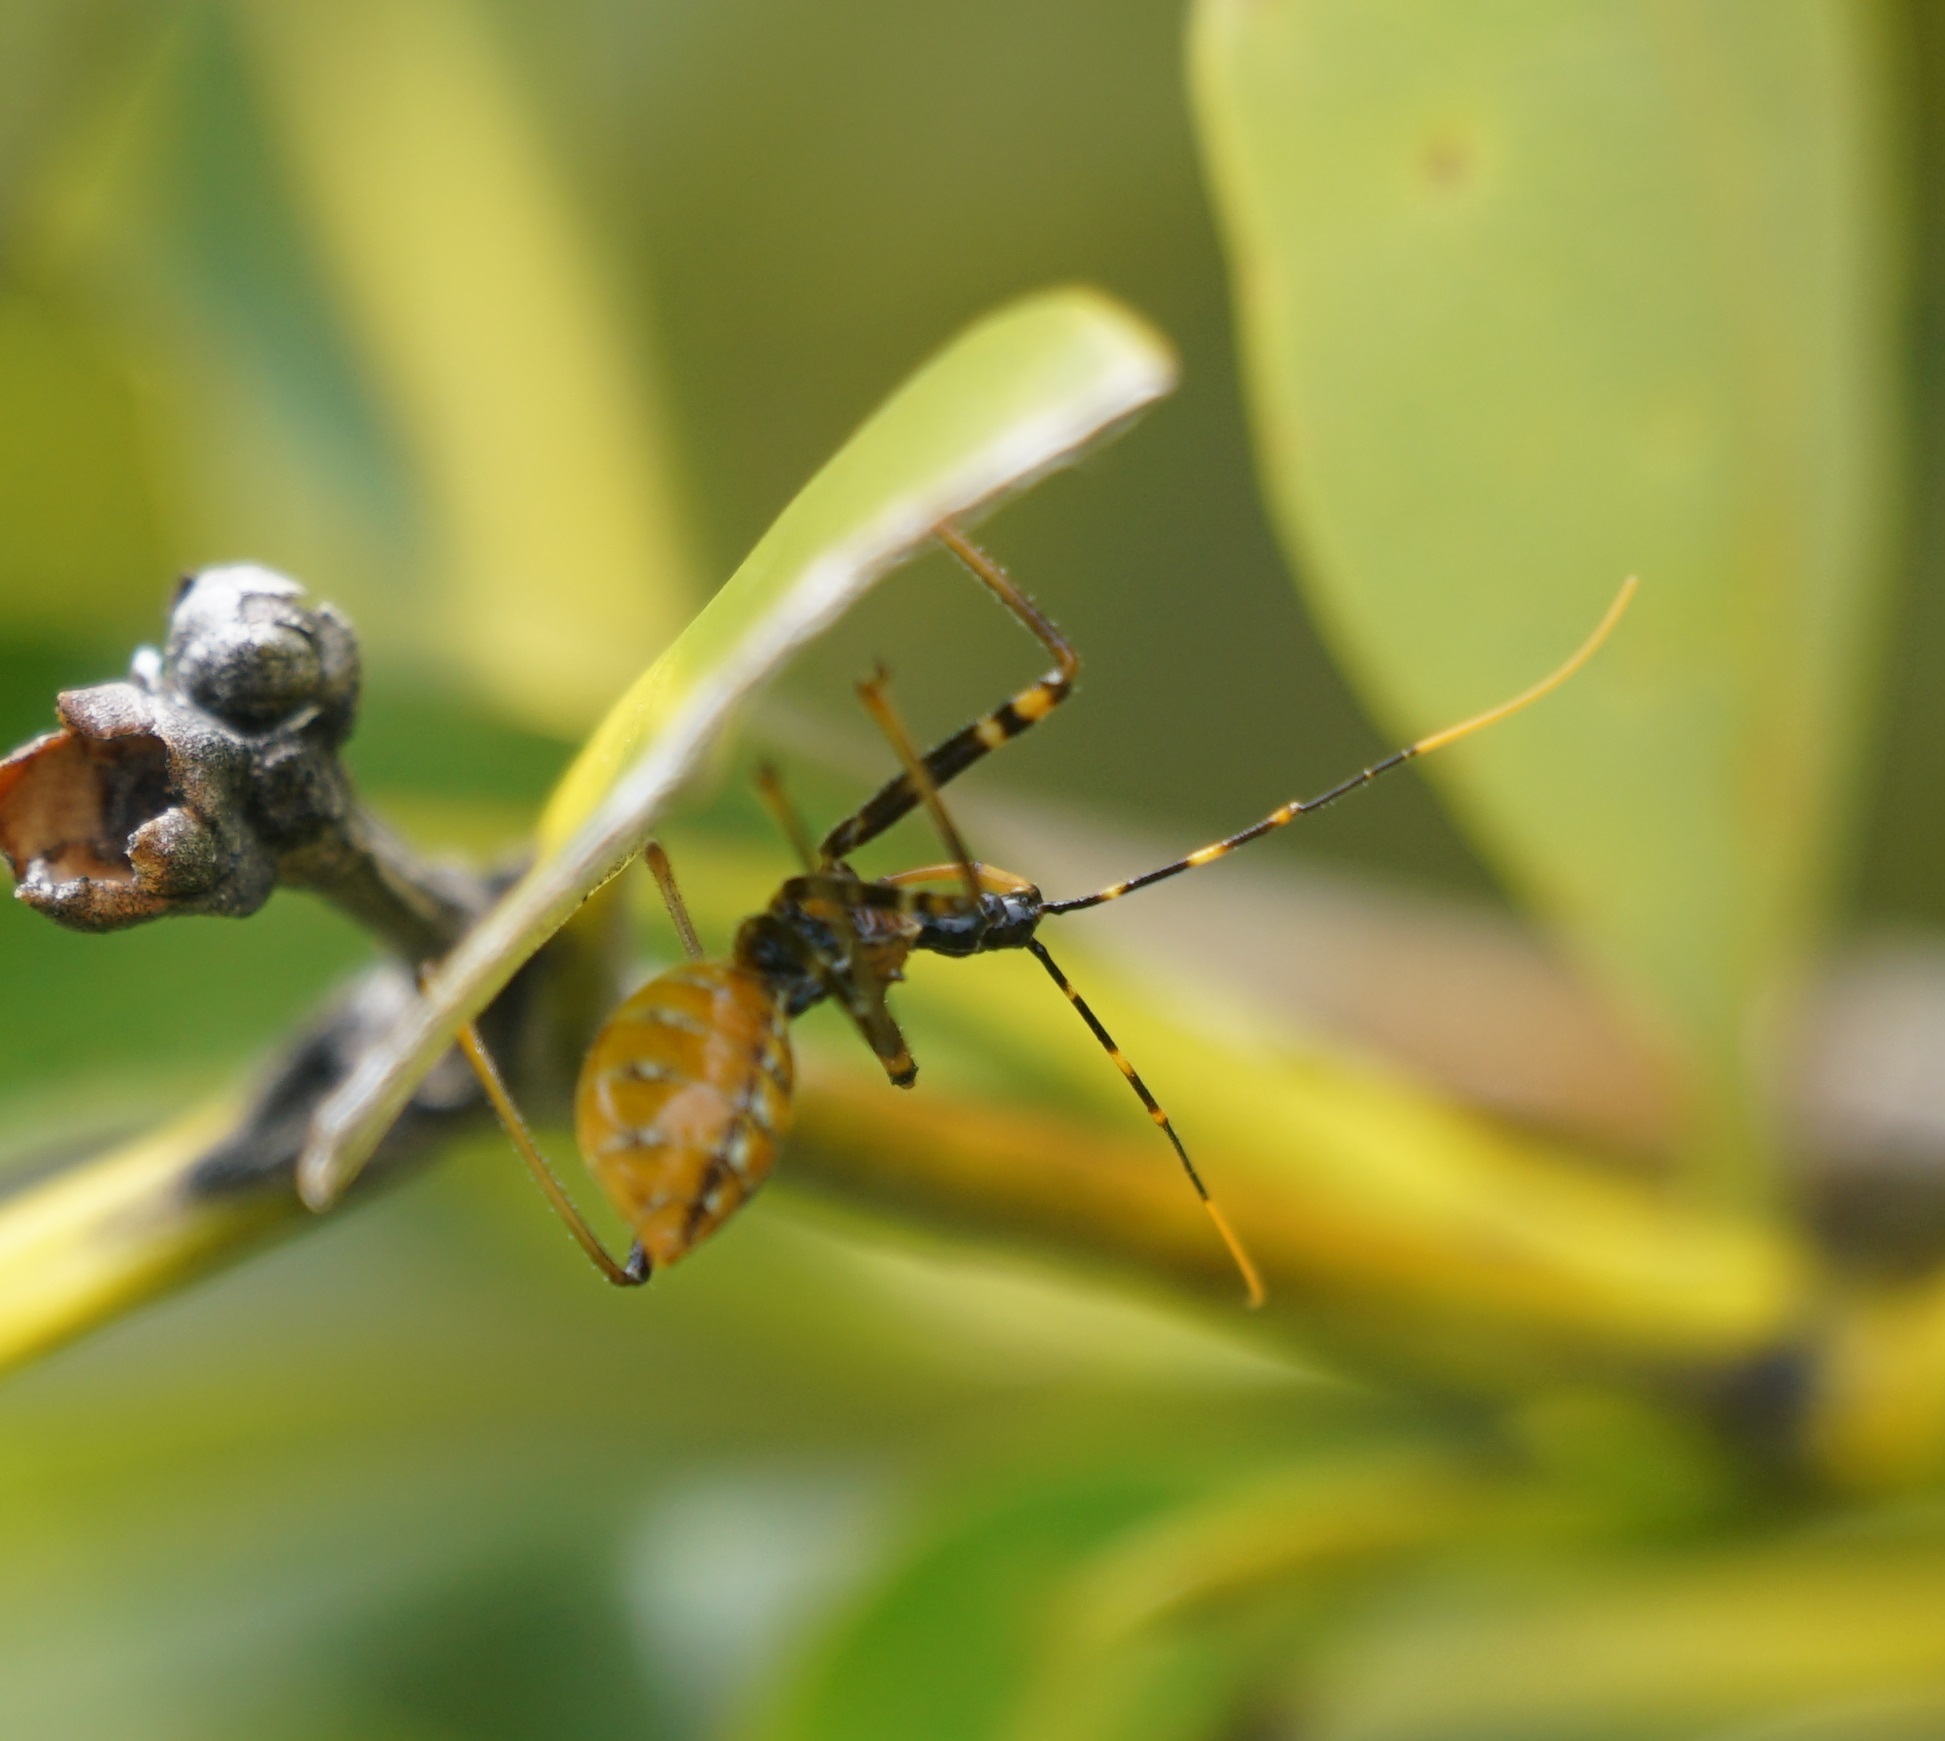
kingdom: Animalia
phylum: Arthropoda
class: Insecta
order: Hemiptera
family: Reduviidae
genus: Pristhesancus
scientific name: Pristhesancus plagipennis
